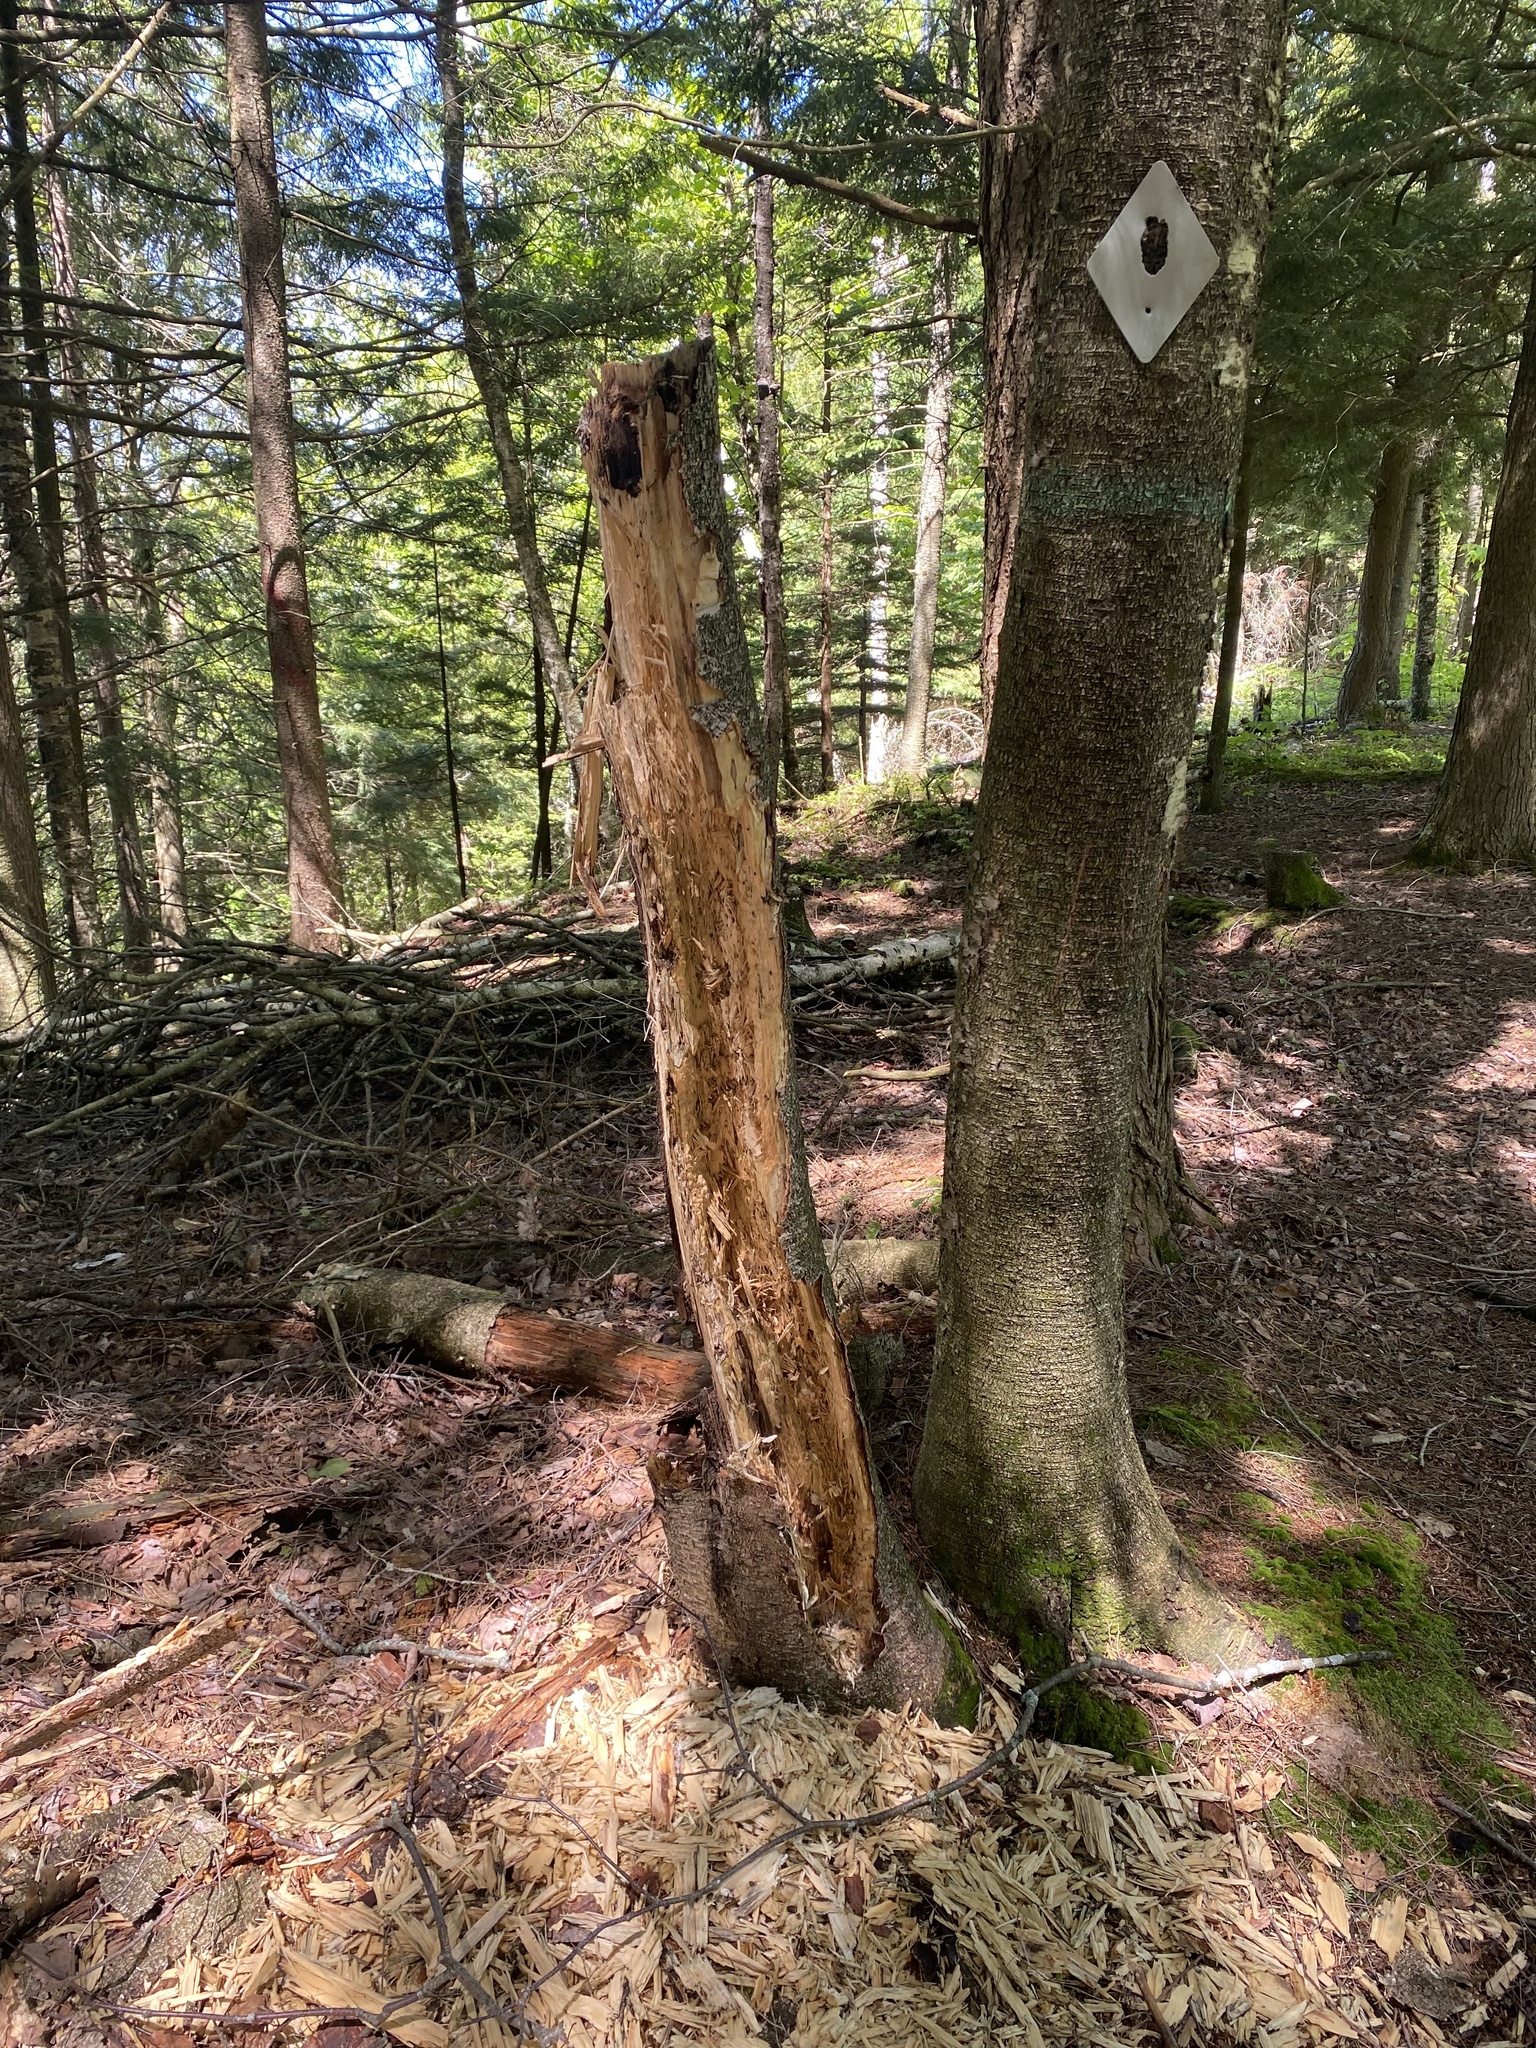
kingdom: Animalia
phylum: Chordata
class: Aves
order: Piciformes
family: Picidae
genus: Dryocopus
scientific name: Dryocopus pileatus
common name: Pileated woodpecker
